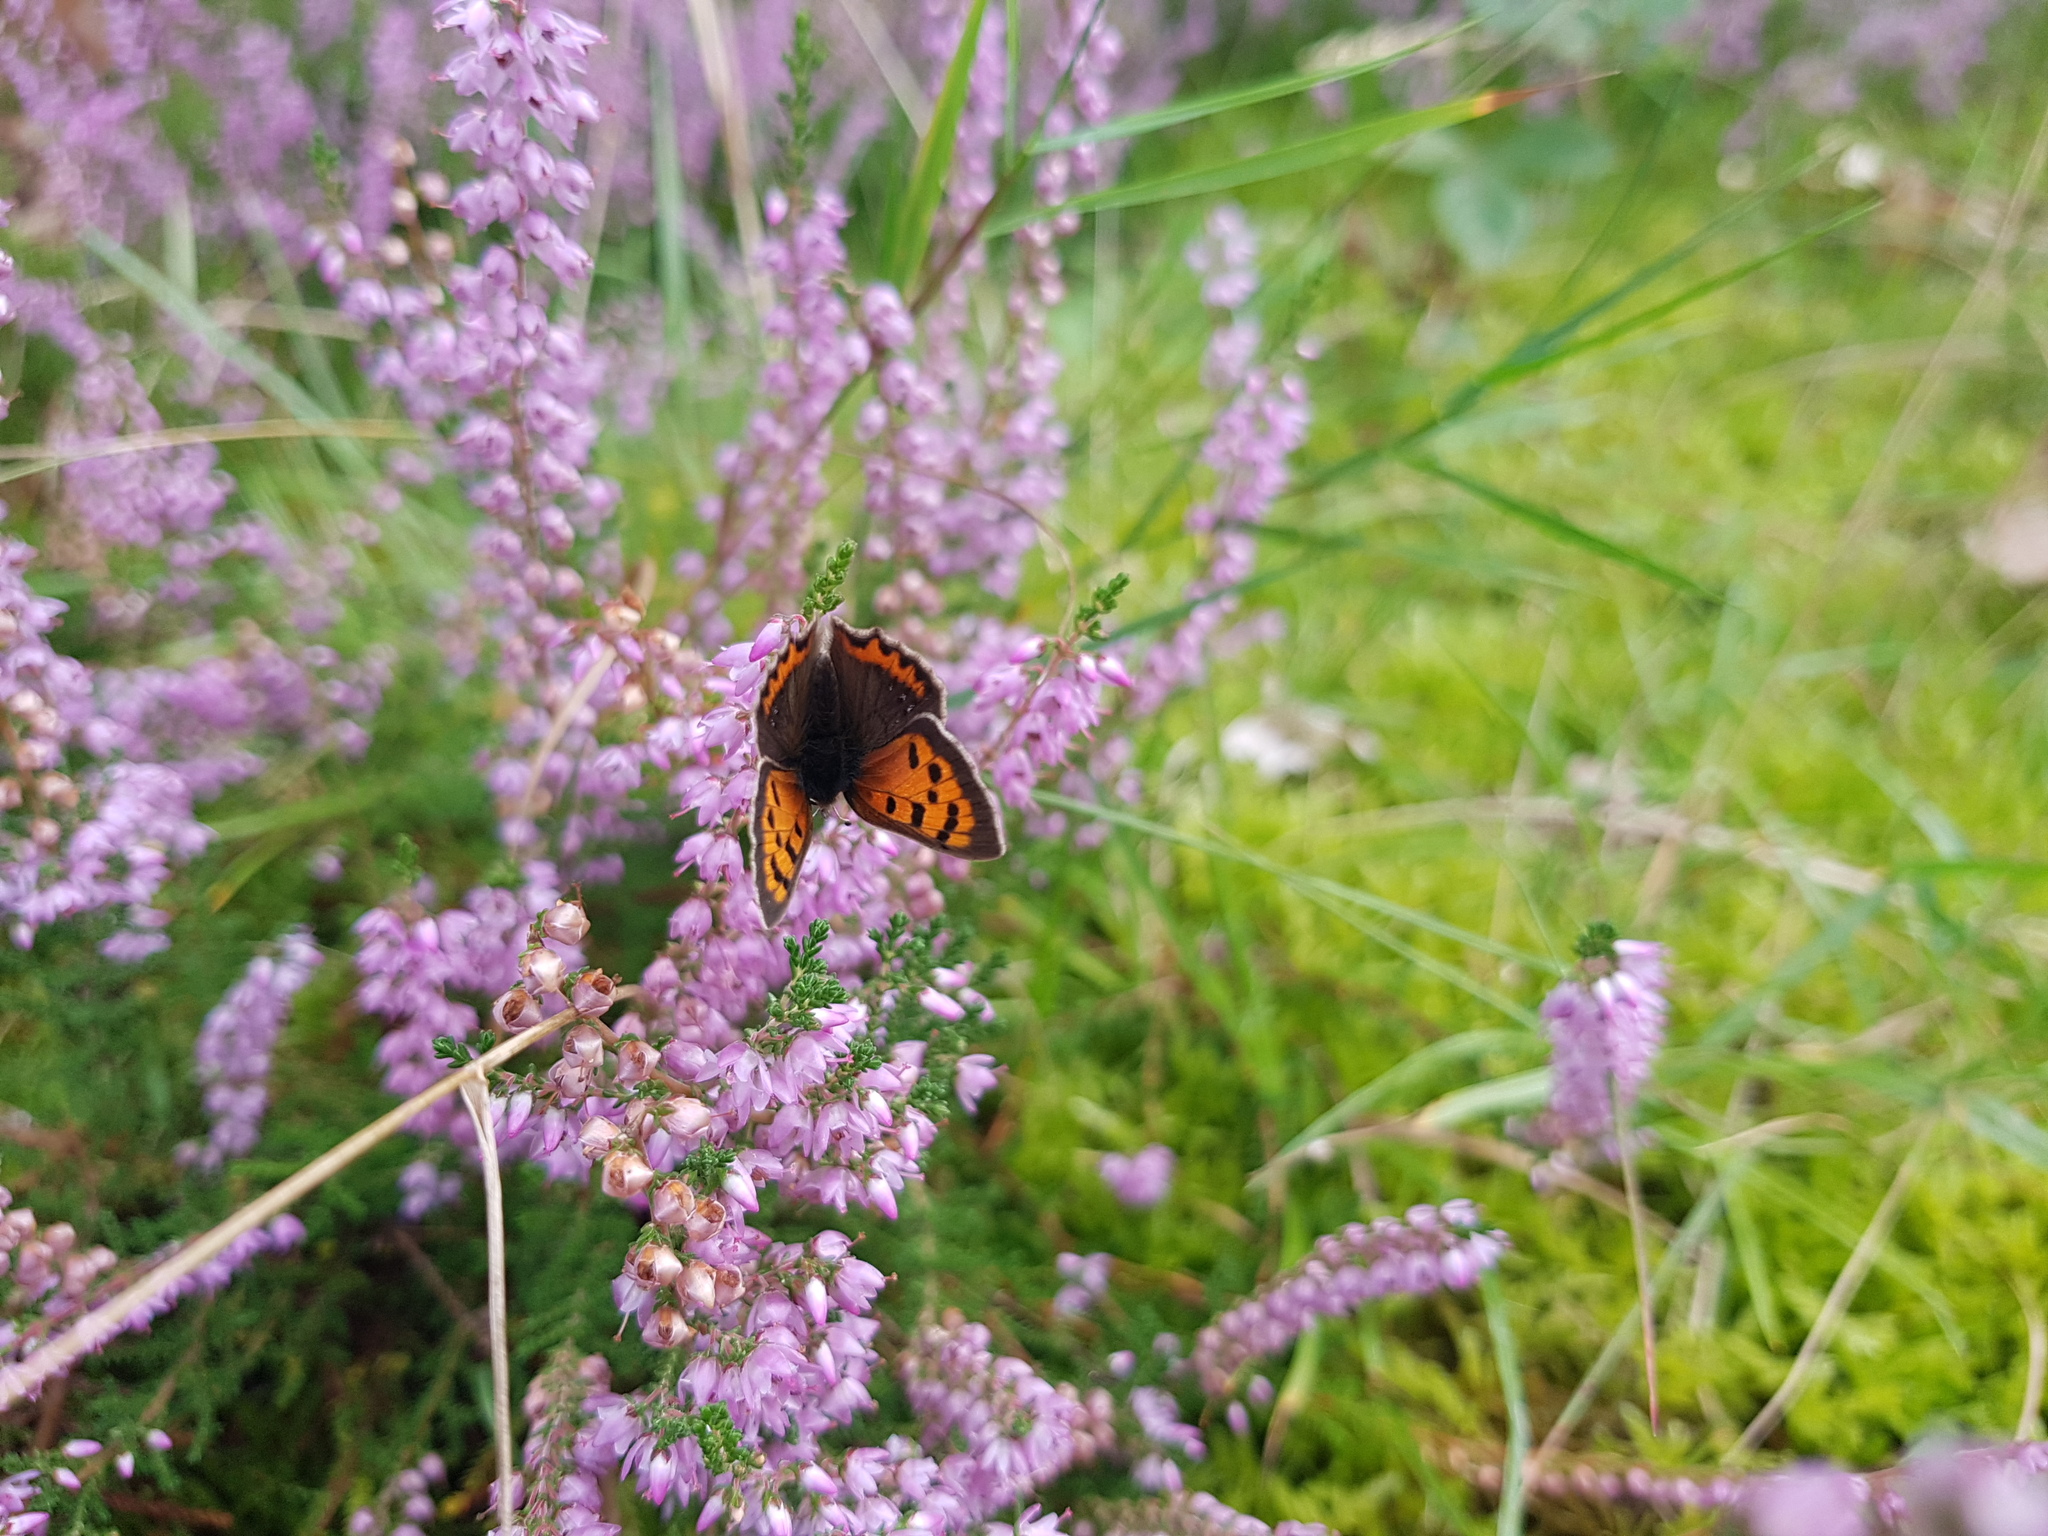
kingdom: Animalia
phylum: Arthropoda
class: Insecta
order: Lepidoptera
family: Lycaenidae
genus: Lycaena
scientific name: Lycaena phlaeas
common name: Small copper
